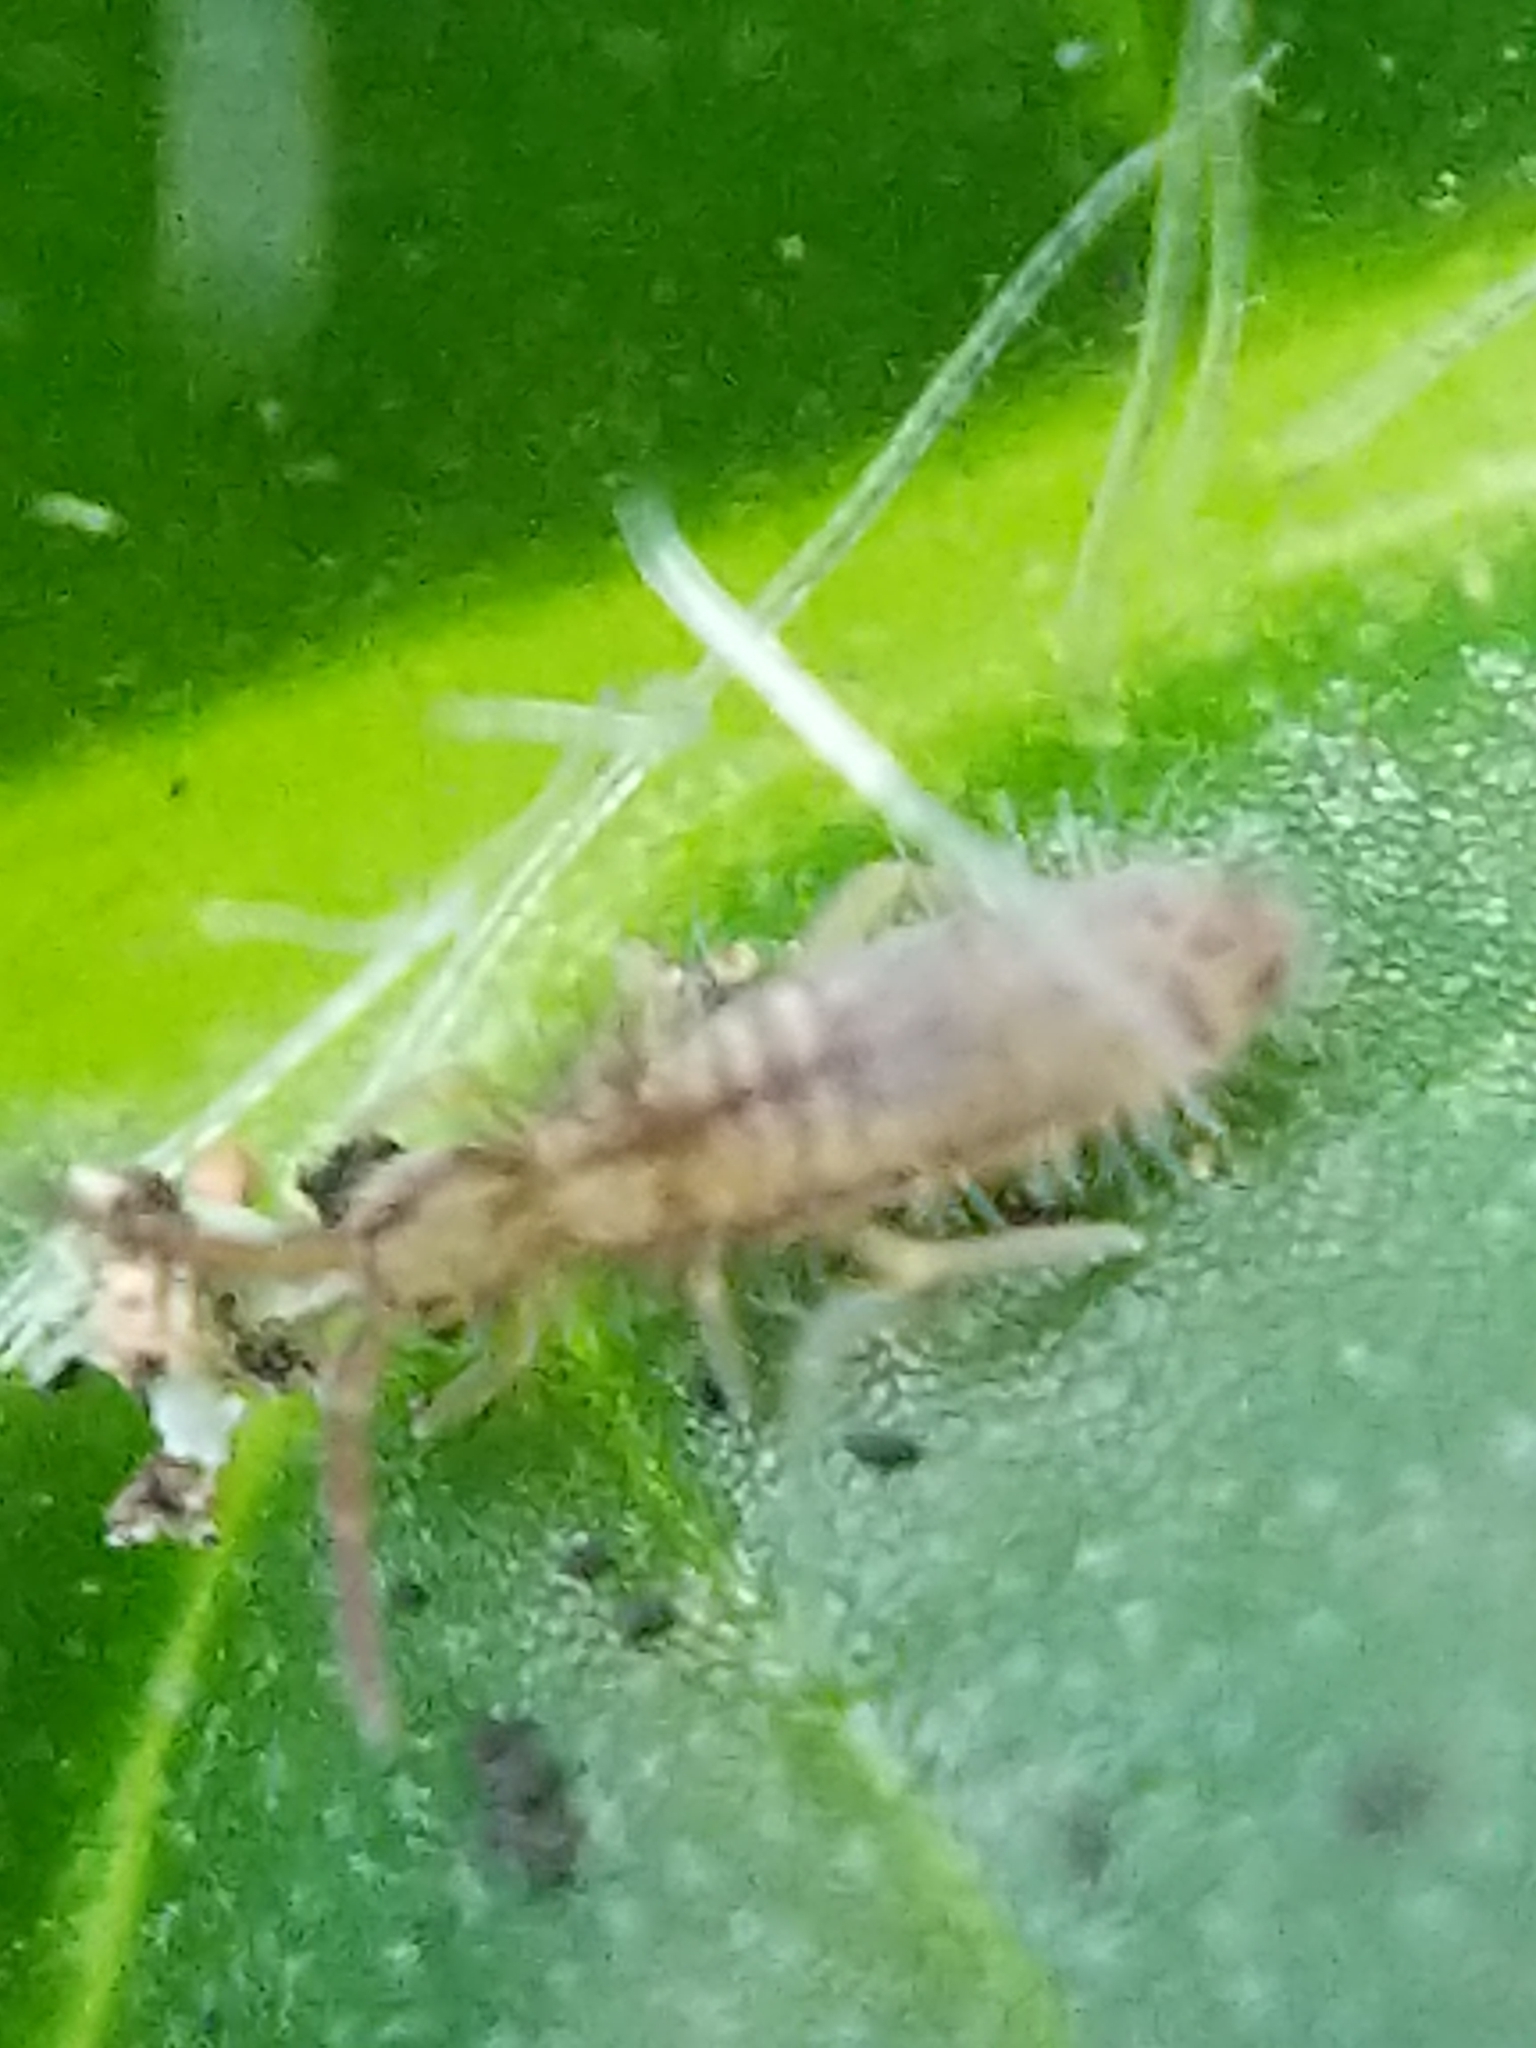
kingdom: Animalia
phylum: Arthropoda
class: Collembola
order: Entomobryomorpha
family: Entomobryidae
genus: Homidia
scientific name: Homidia socia
